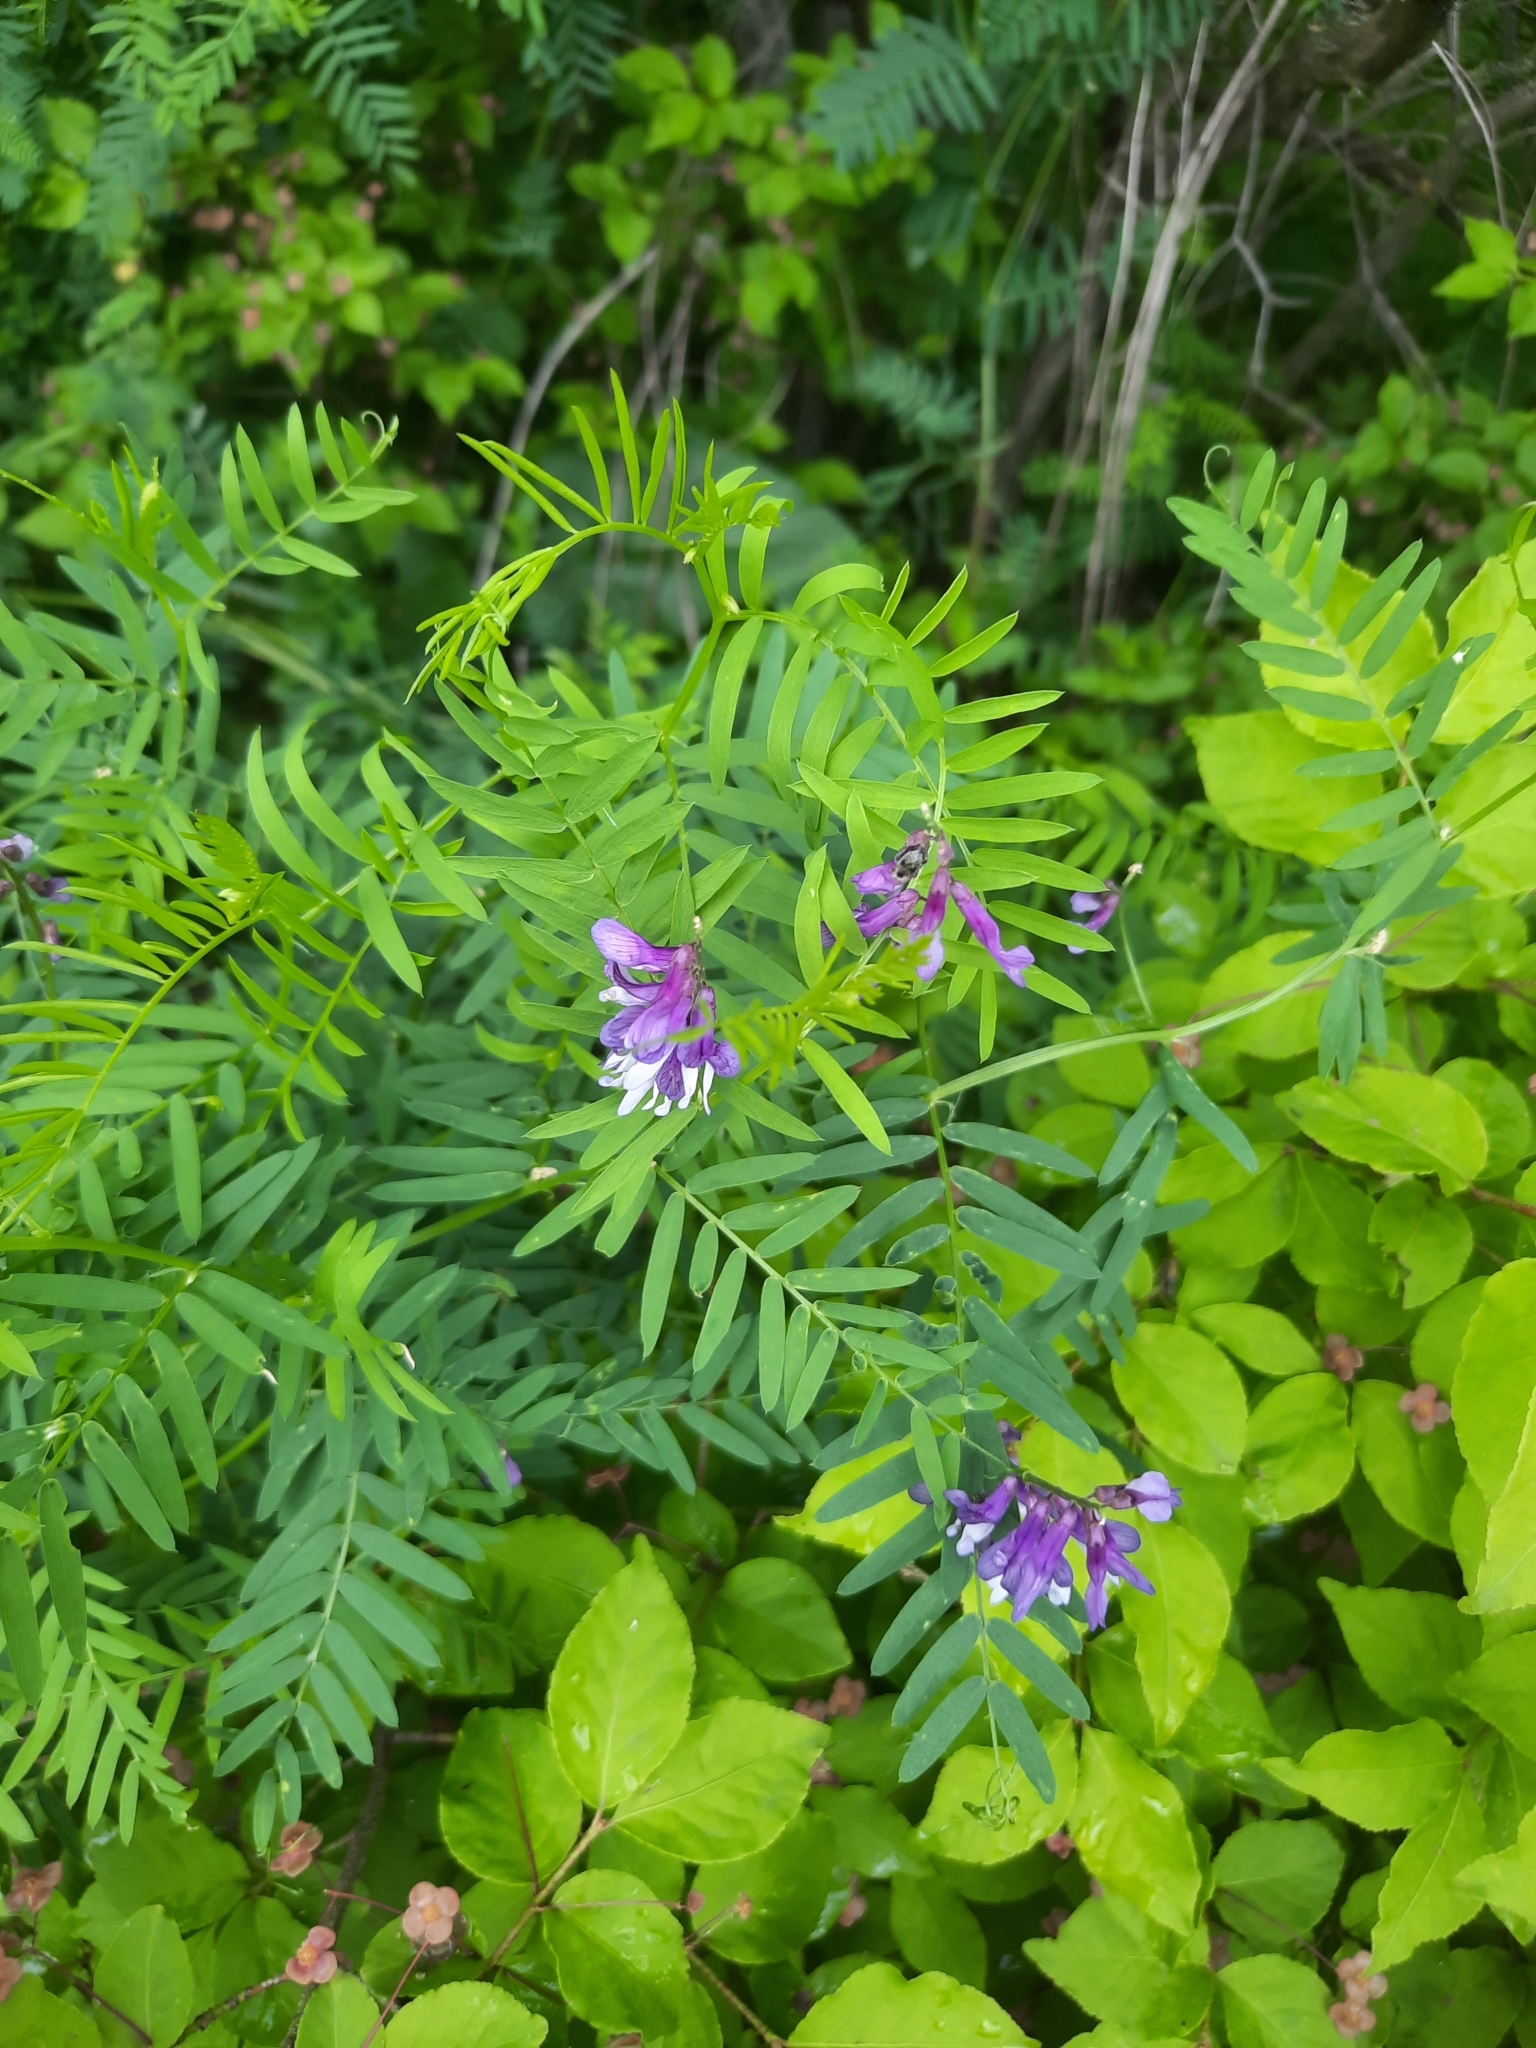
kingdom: Plantae
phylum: Tracheophyta
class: Magnoliopsida
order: Fabales
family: Fabaceae
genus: Vicia
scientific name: Vicia cracca
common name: Bird vetch
